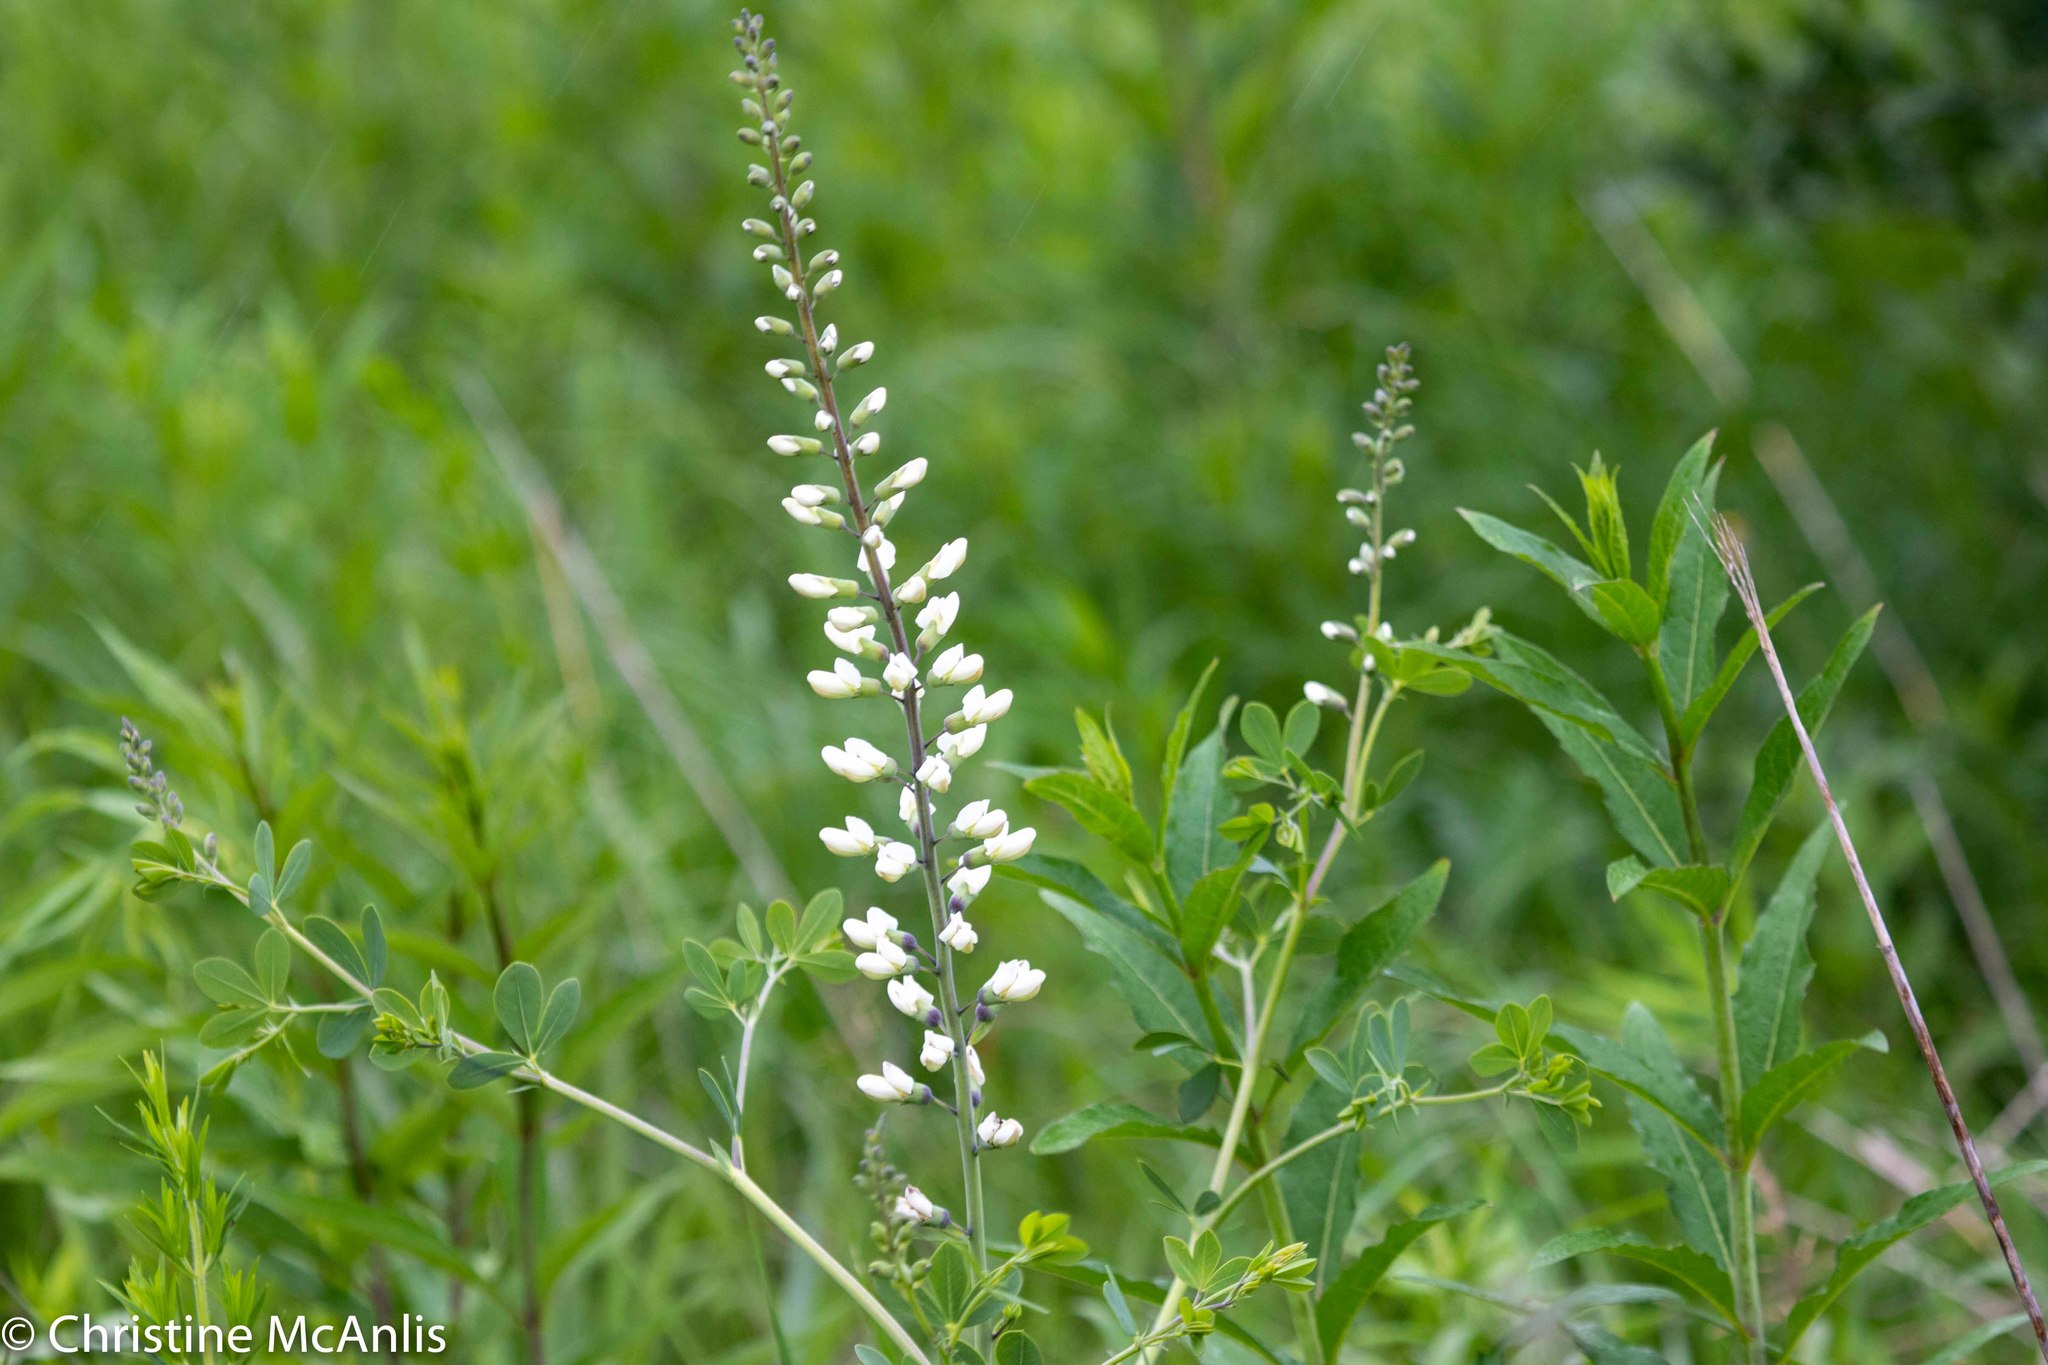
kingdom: Plantae
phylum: Tracheophyta
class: Magnoliopsida
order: Fabales
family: Fabaceae
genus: Baptisia
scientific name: Baptisia alba
